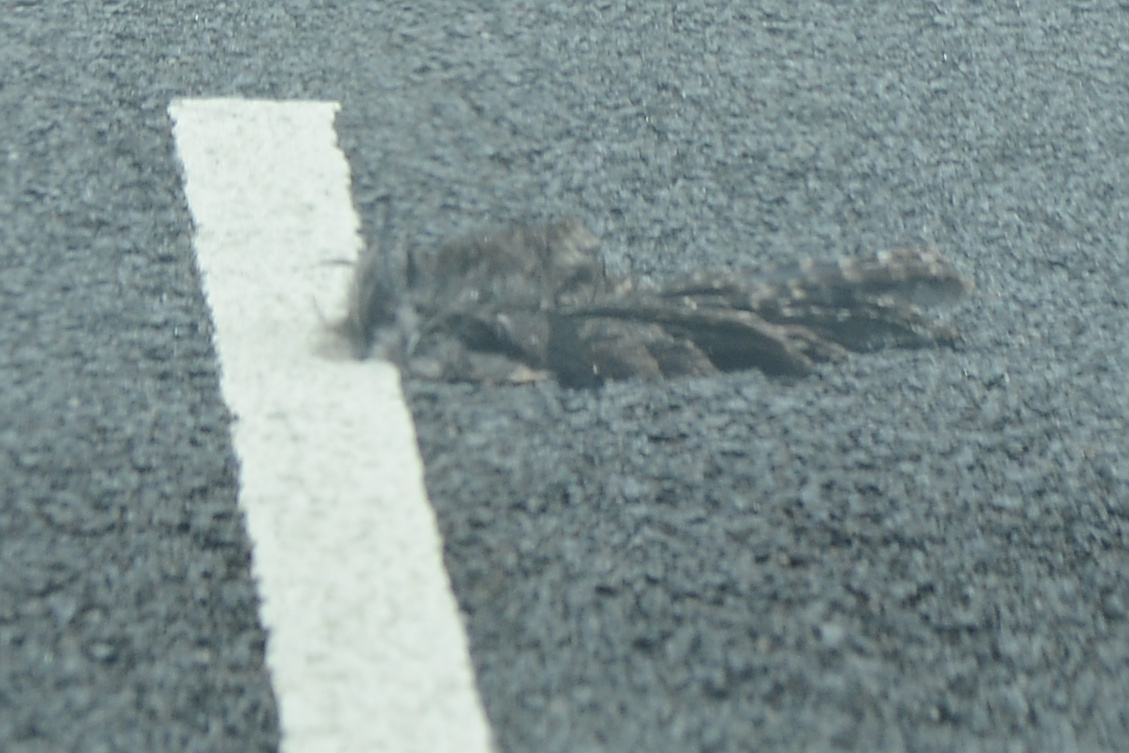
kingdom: Animalia
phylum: Chordata
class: Aves
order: Strigiformes
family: Strigidae
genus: Ninox
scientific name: Ninox novaeseelandiae
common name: Morepork
